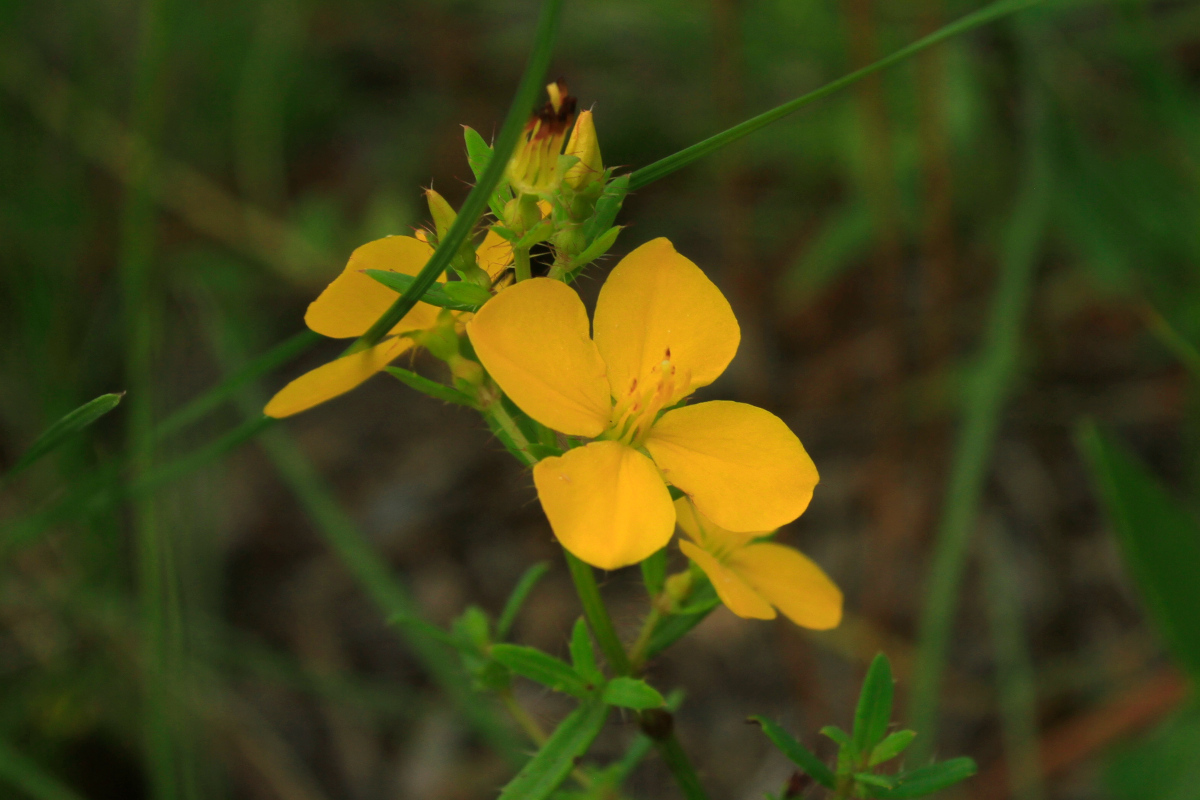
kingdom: Plantae
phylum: Tracheophyta
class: Magnoliopsida
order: Myrtales
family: Melastomataceae
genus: Rhexia
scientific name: Rhexia lutea
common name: Golden meadow-beauty
